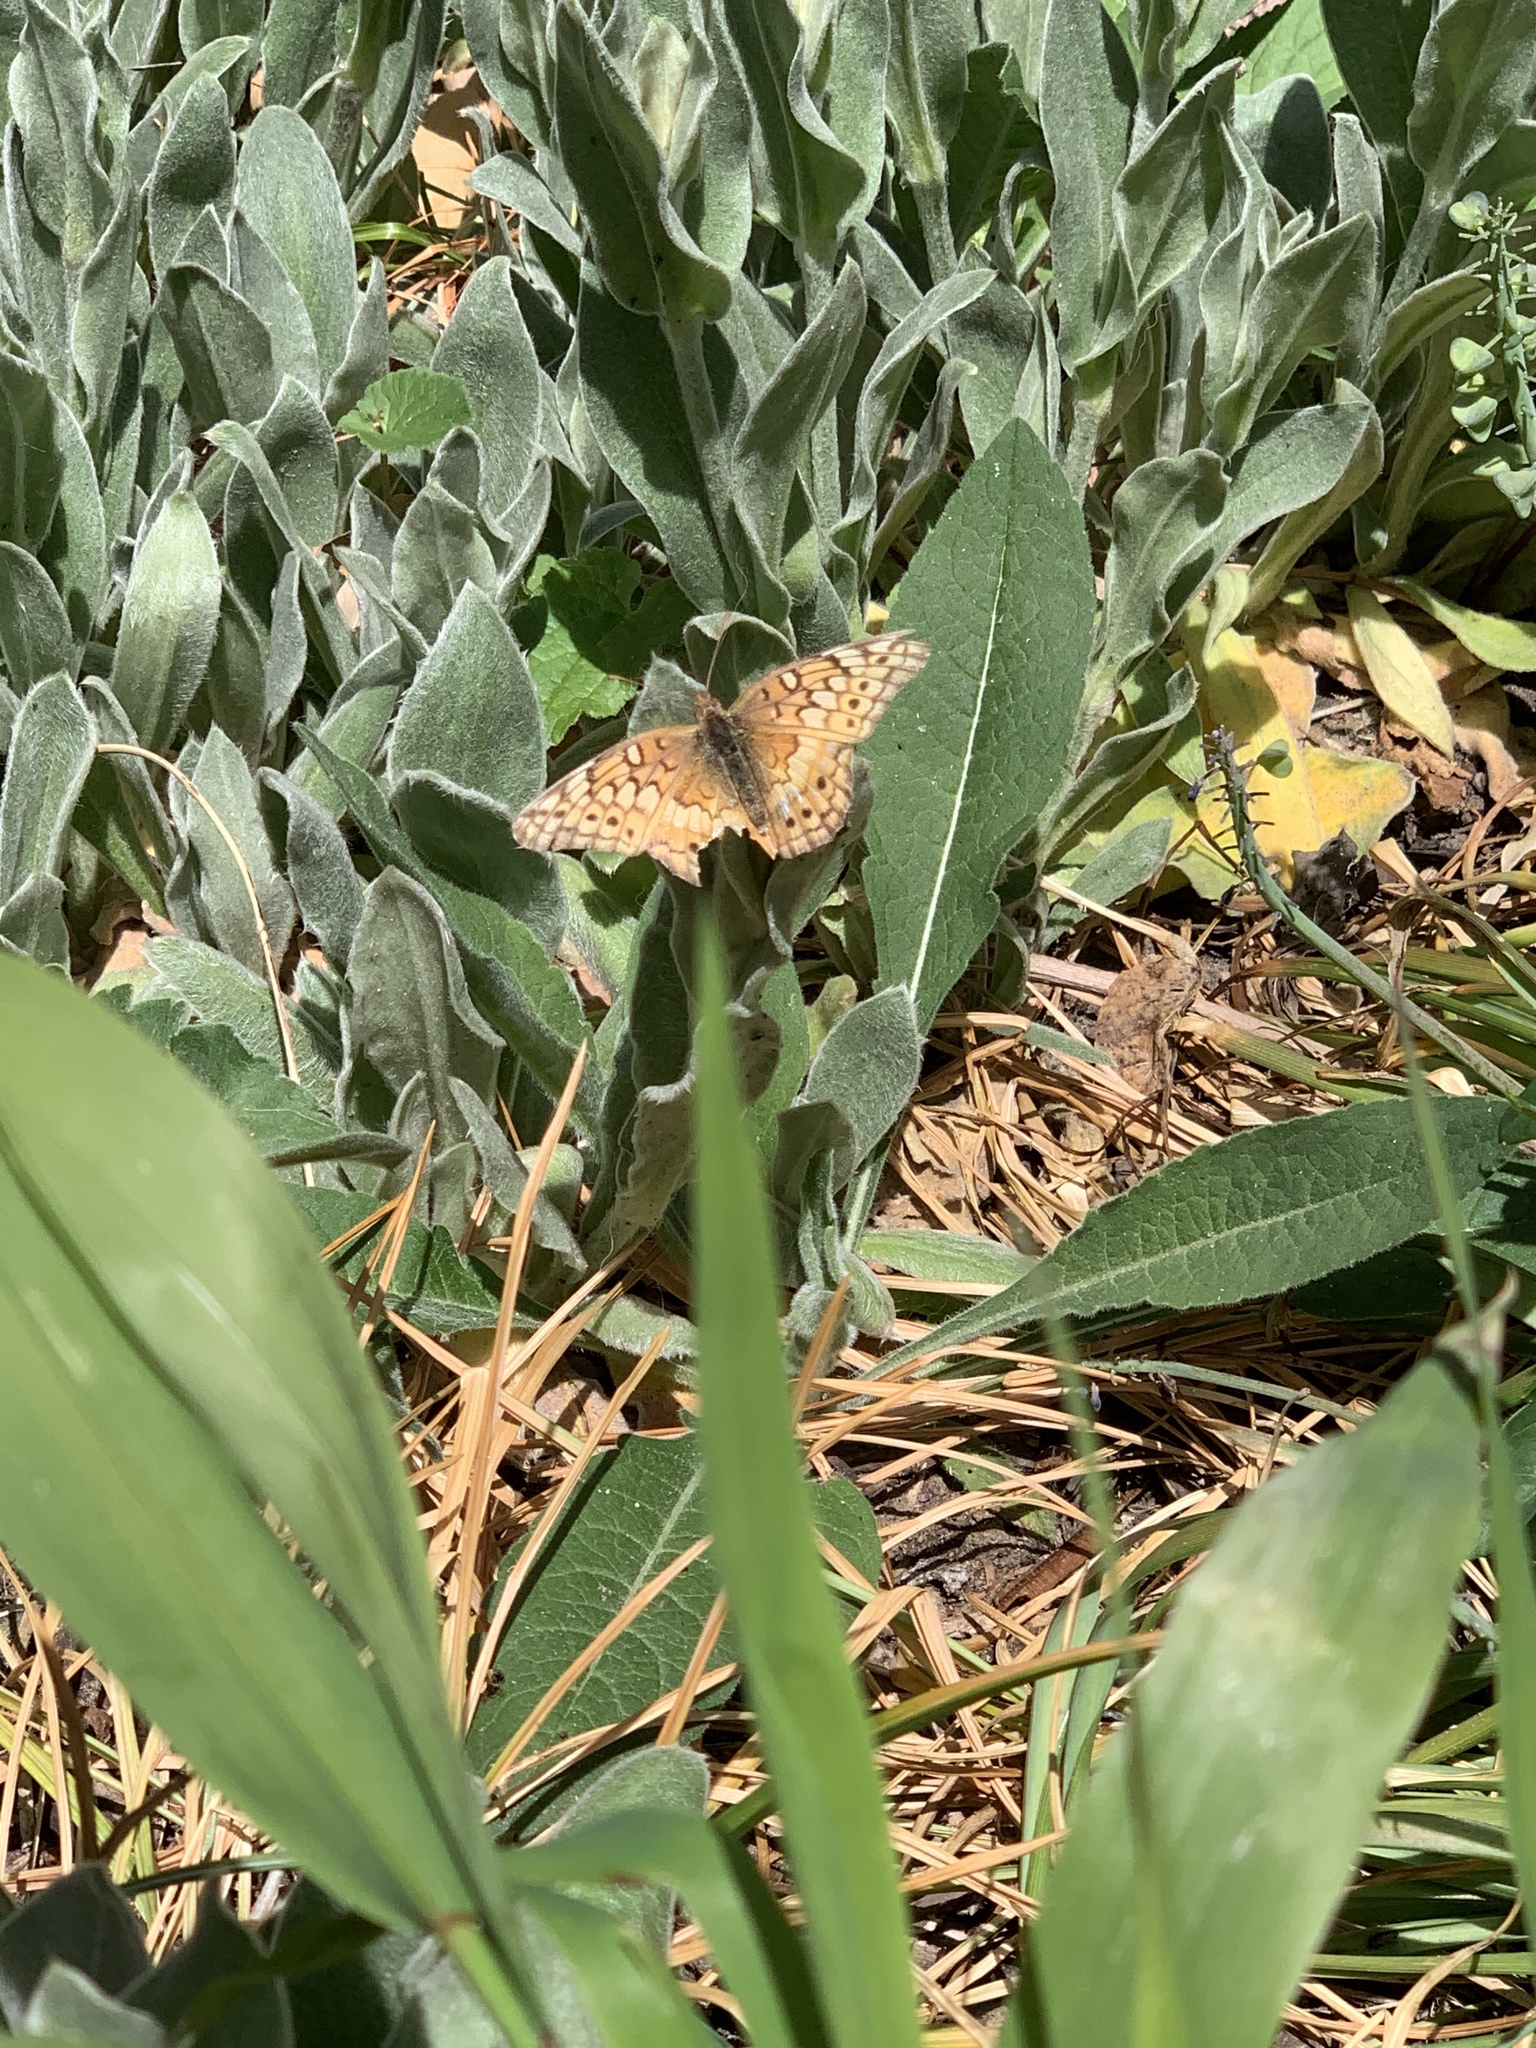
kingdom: Animalia
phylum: Arthropoda
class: Insecta
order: Lepidoptera
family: Nymphalidae
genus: Euptoieta
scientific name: Euptoieta claudia
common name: Variegated fritillary
